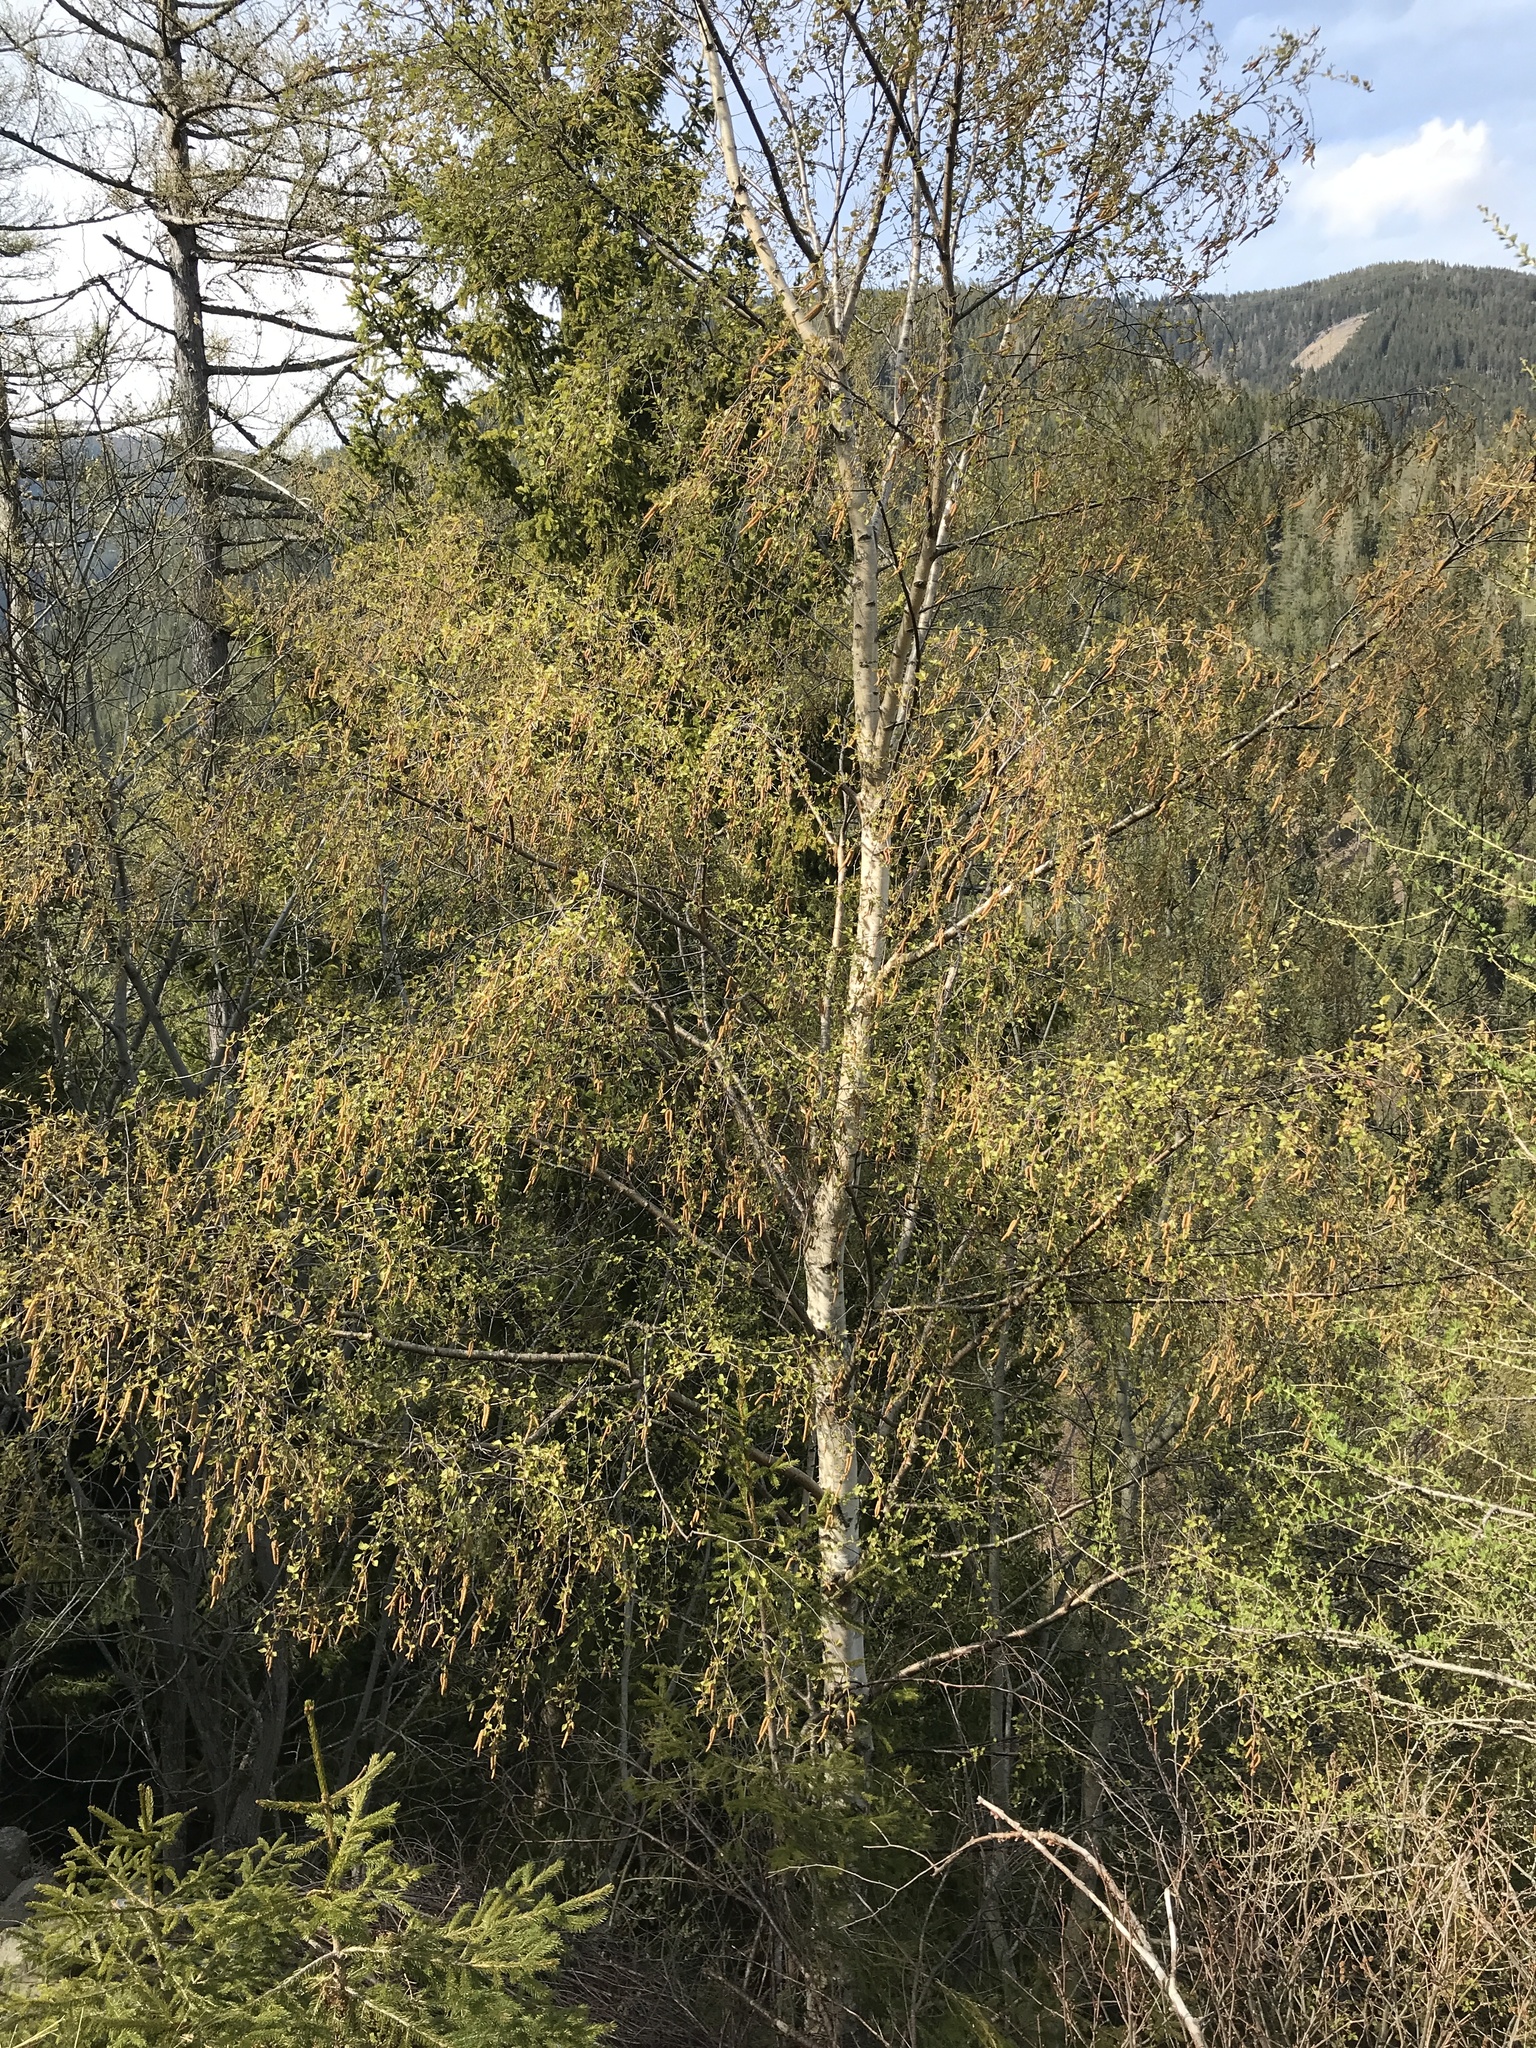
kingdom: Plantae
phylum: Tracheophyta
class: Magnoliopsida
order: Fagales
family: Betulaceae
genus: Betula
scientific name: Betula pendula
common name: Silver birch
